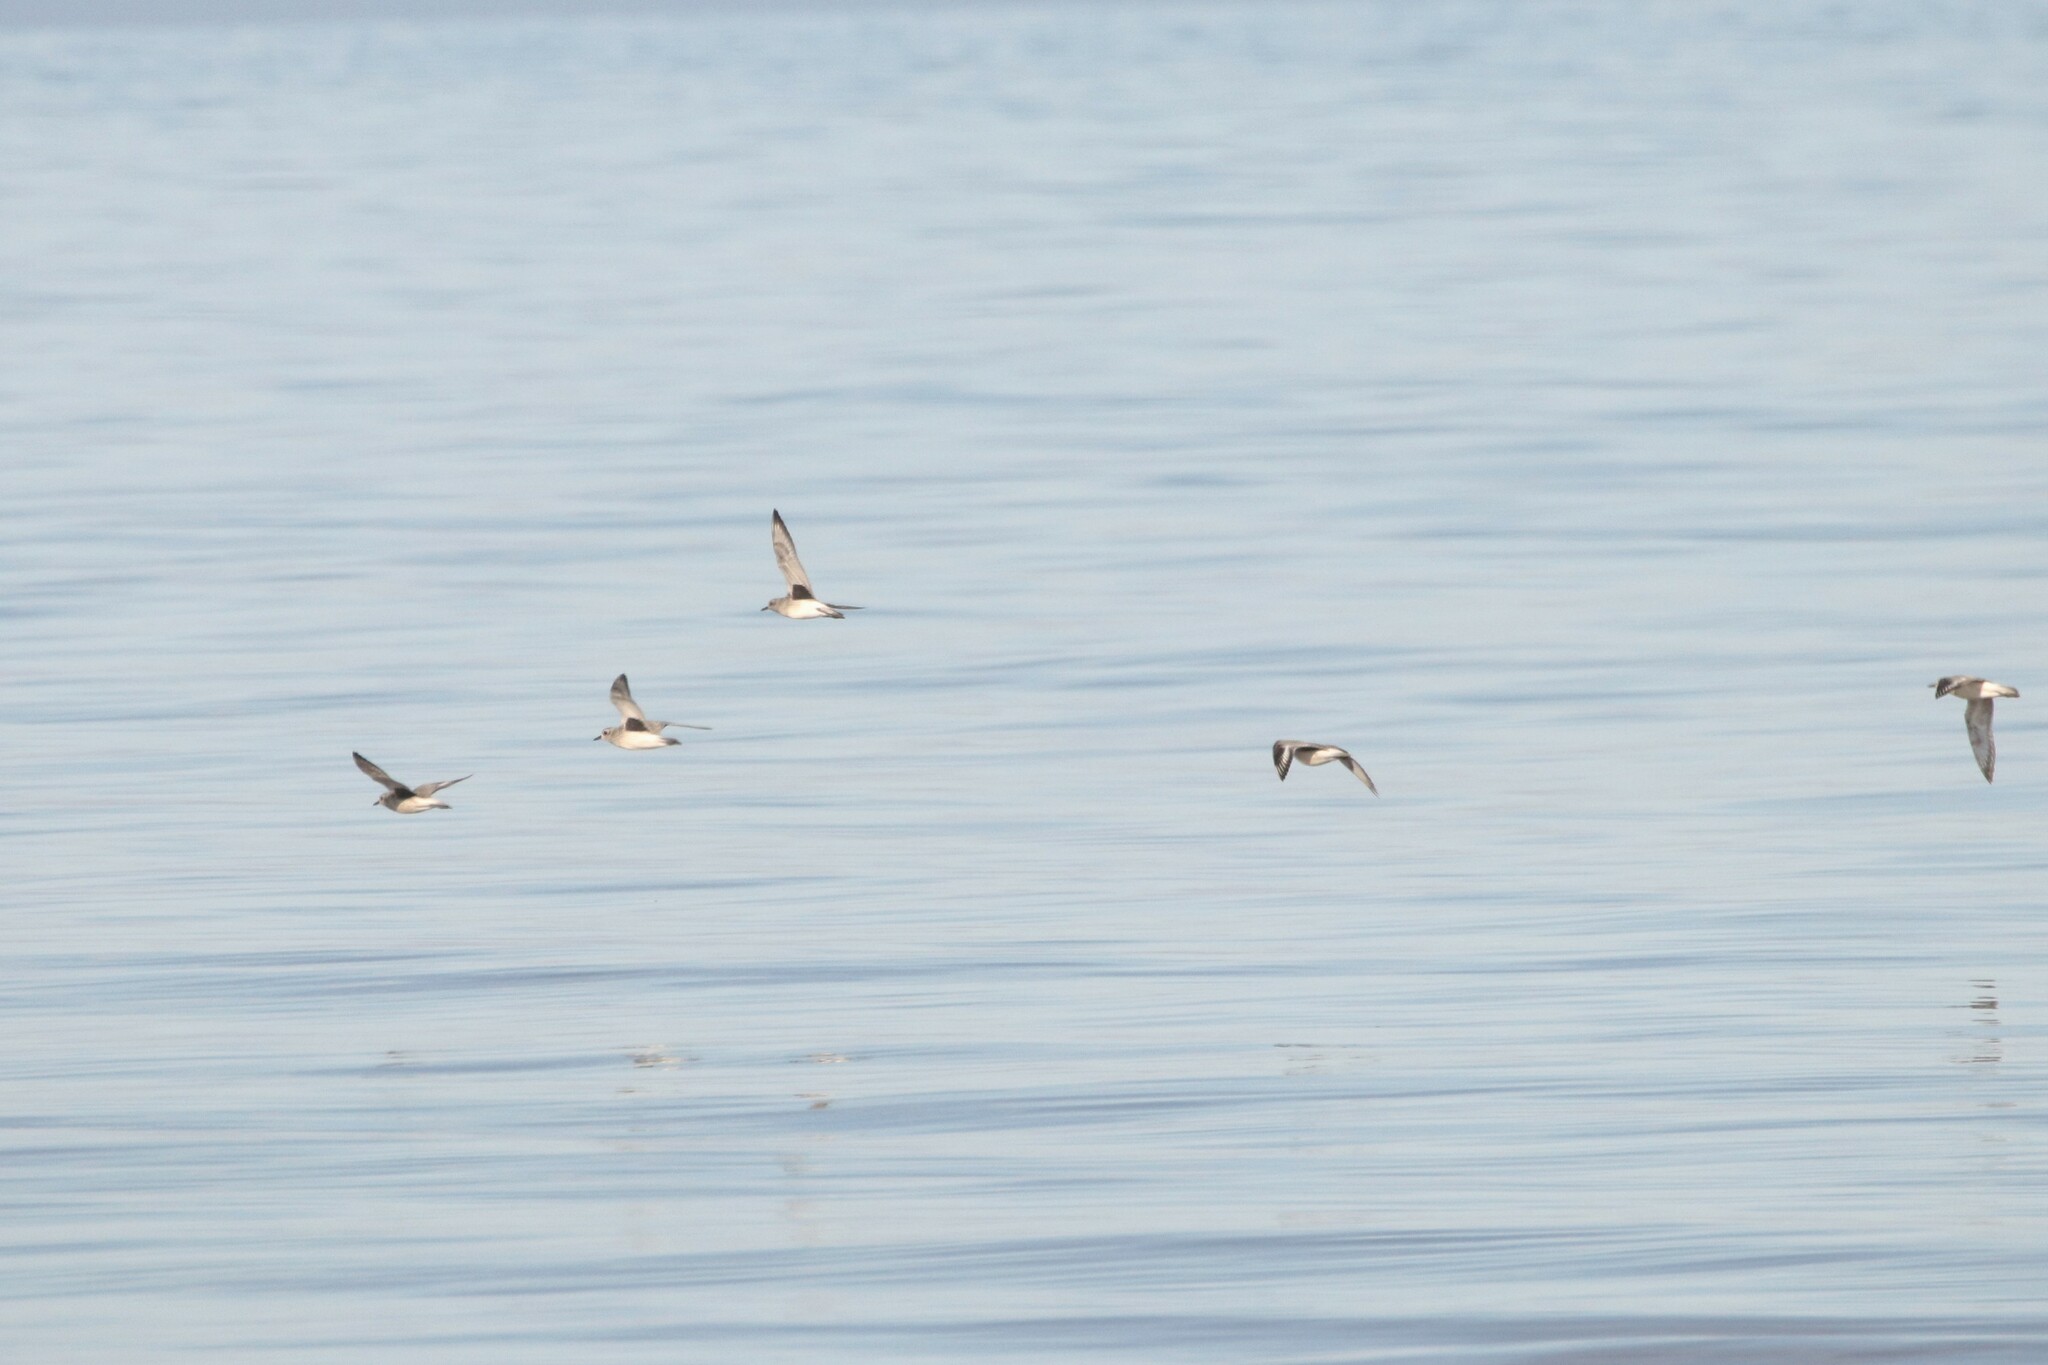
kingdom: Animalia
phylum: Chordata
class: Aves
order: Charadriiformes
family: Charadriidae
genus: Pluvialis
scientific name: Pluvialis squatarola
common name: Grey plover
